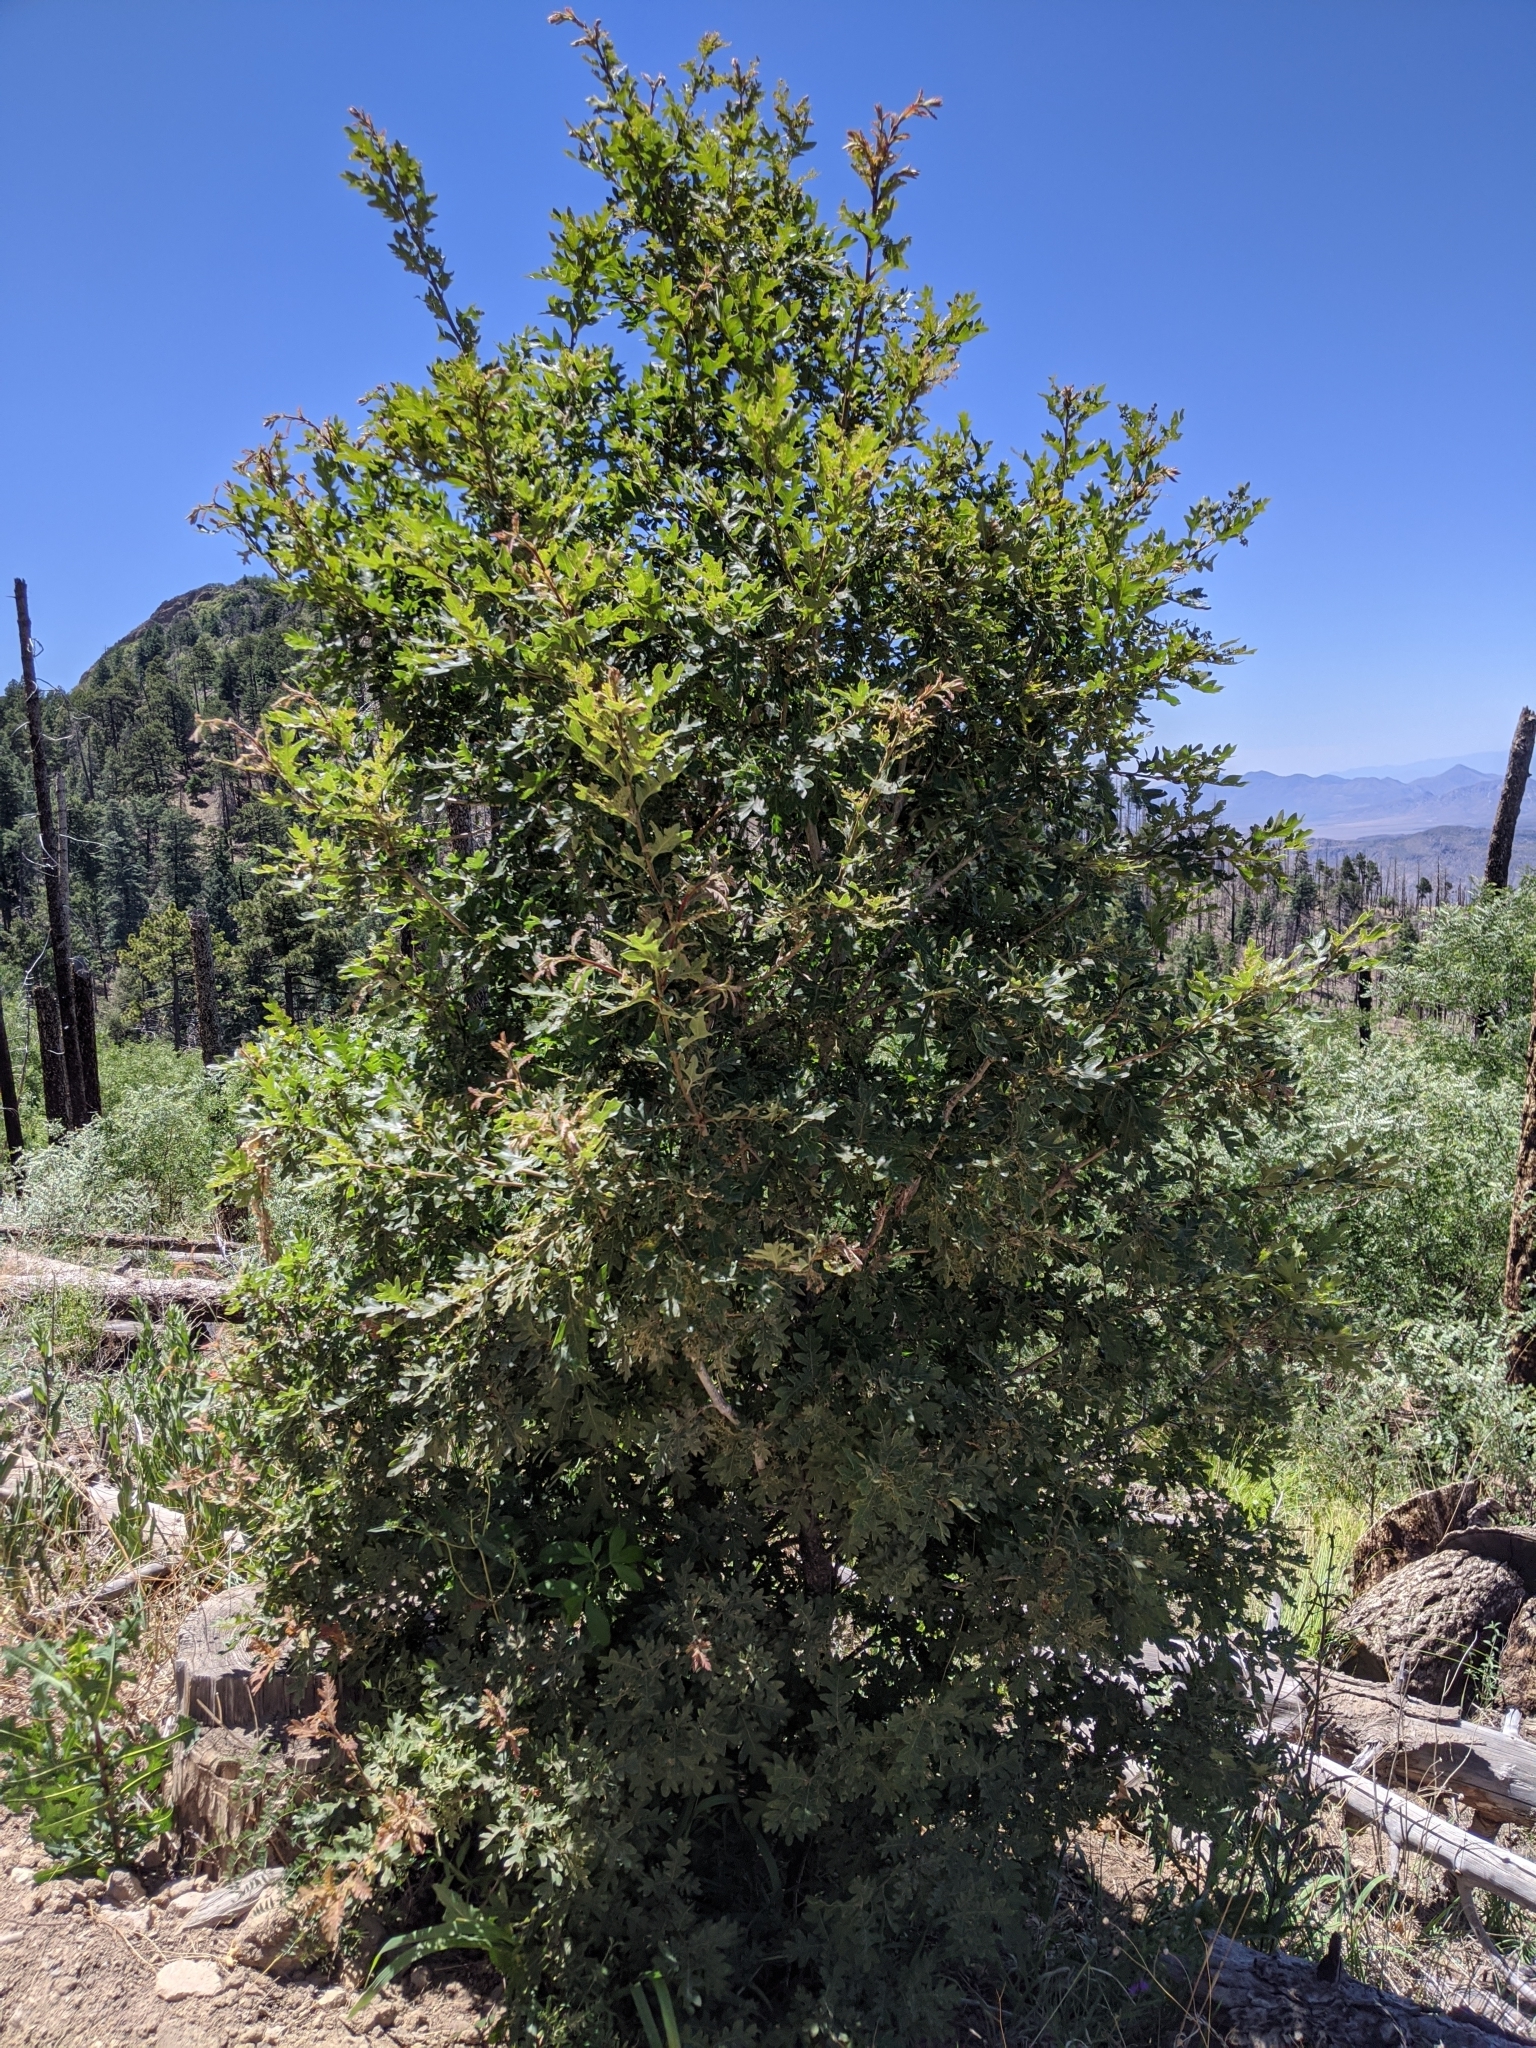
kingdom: Plantae
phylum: Tracheophyta
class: Magnoliopsida
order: Fagales
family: Fagaceae
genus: Quercus
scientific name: Quercus gambelii
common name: Gambel oak
